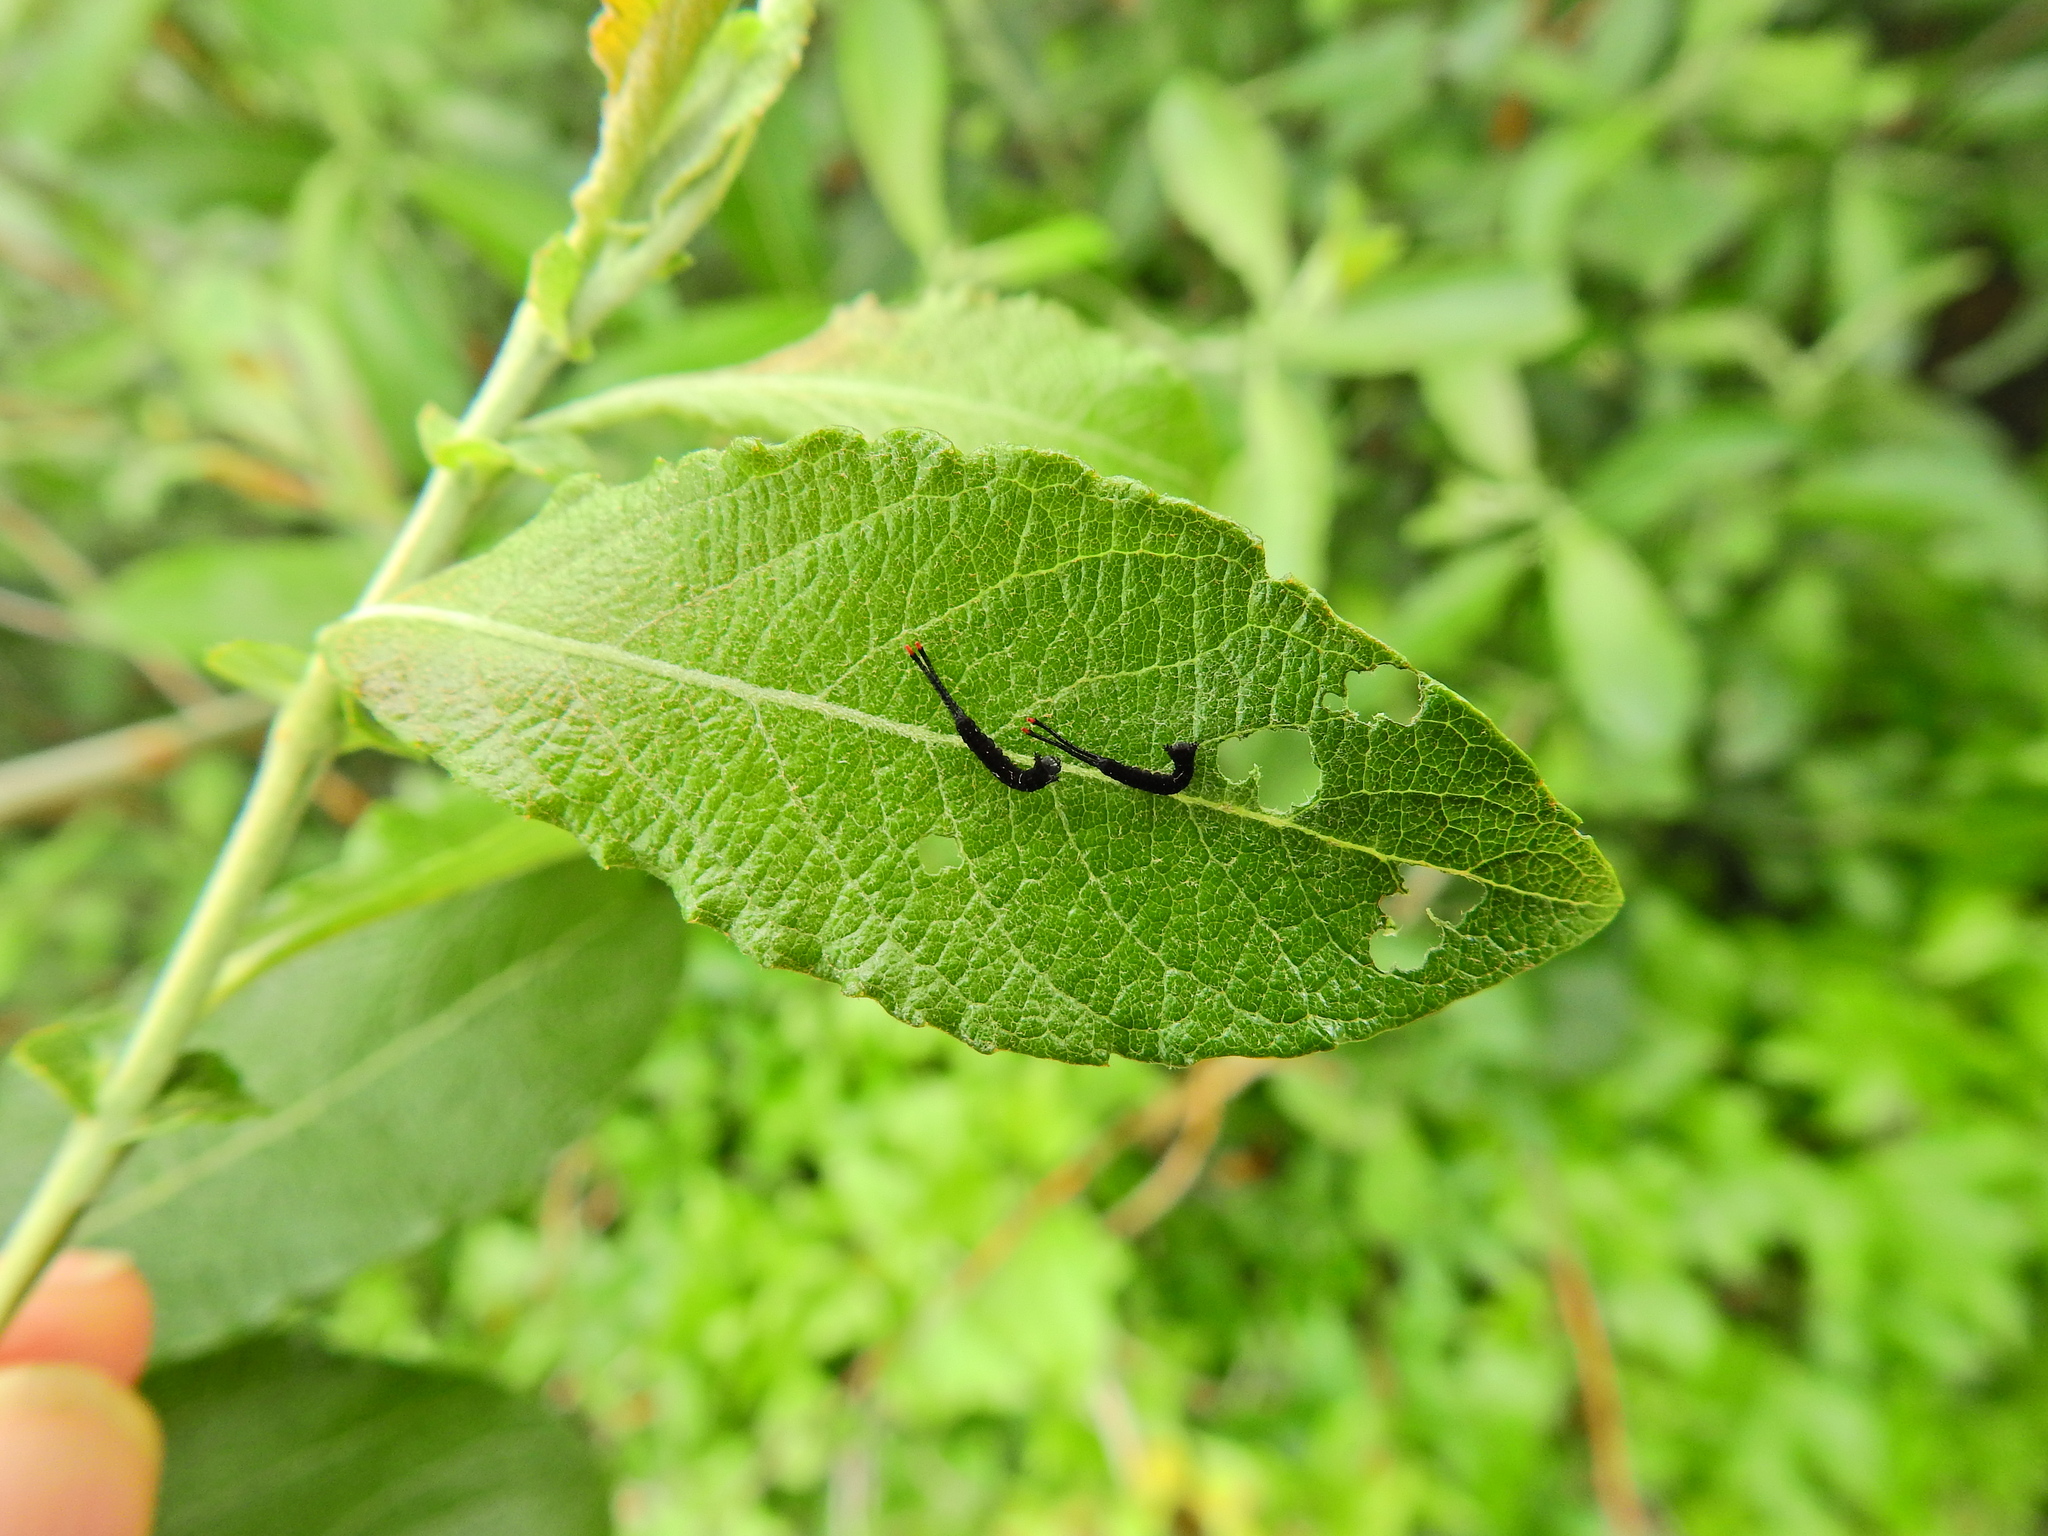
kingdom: Animalia
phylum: Arthropoda
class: Insecta
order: Lepidoptera
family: Notodontidae
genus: Cerura
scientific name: Cerura vinula
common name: Puss moth
